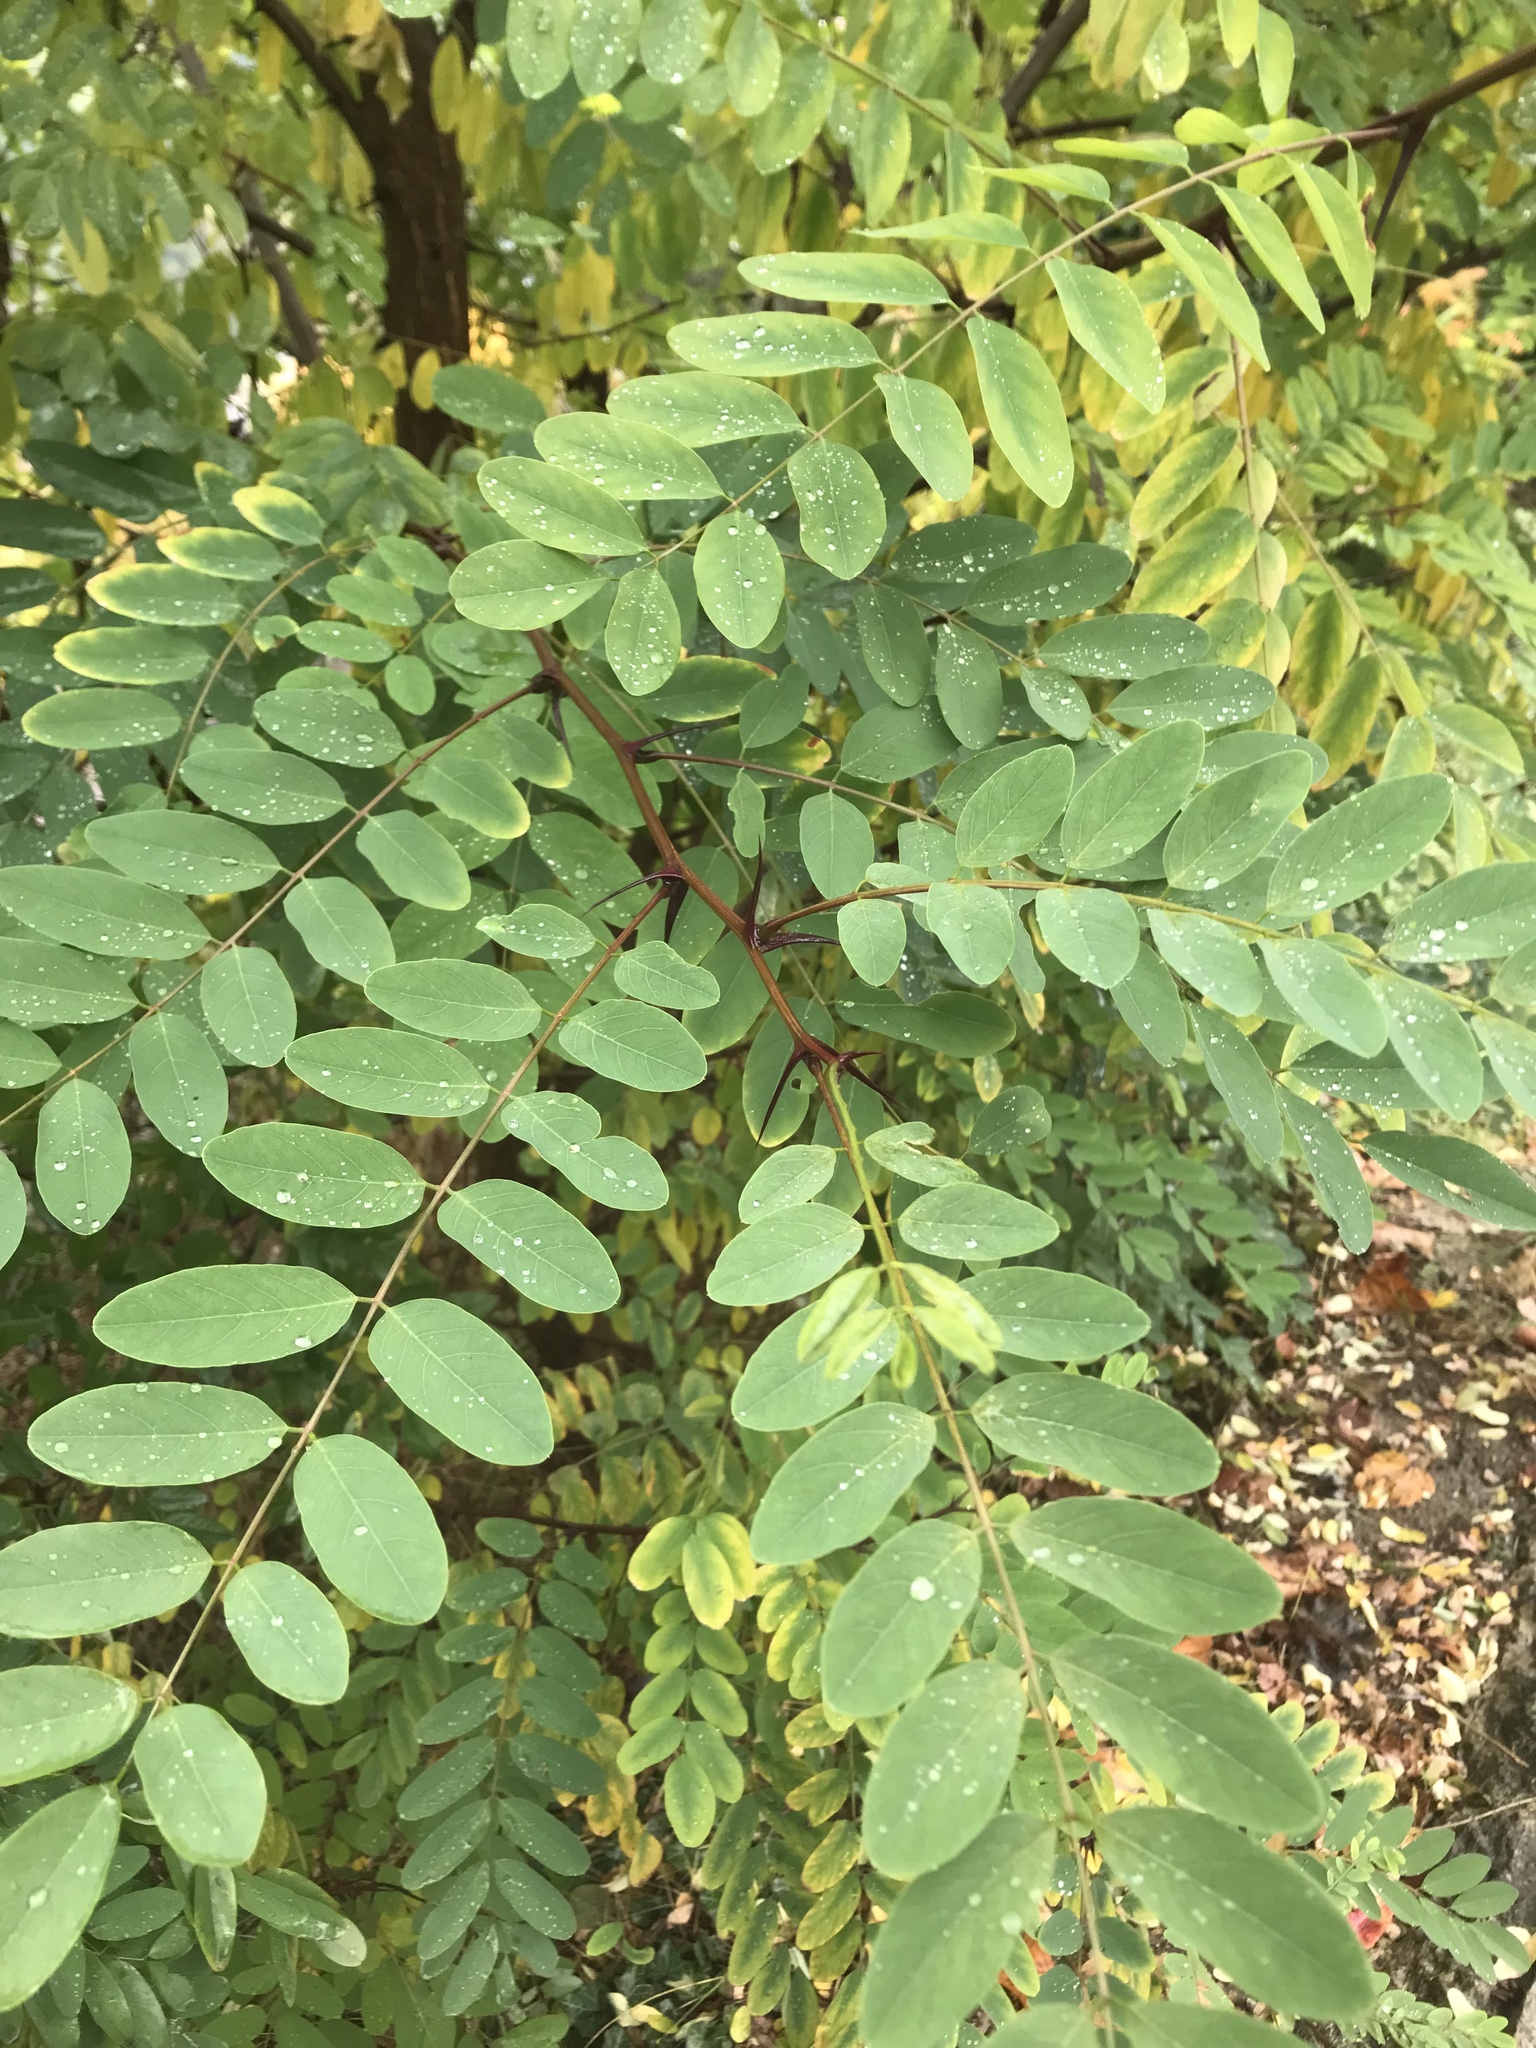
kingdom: Plantae
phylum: Tracheophyta
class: Magnoliopsida
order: Fabales
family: Fabaceae
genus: Robinia
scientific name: Robinia pseudoacacia
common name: Black locust
